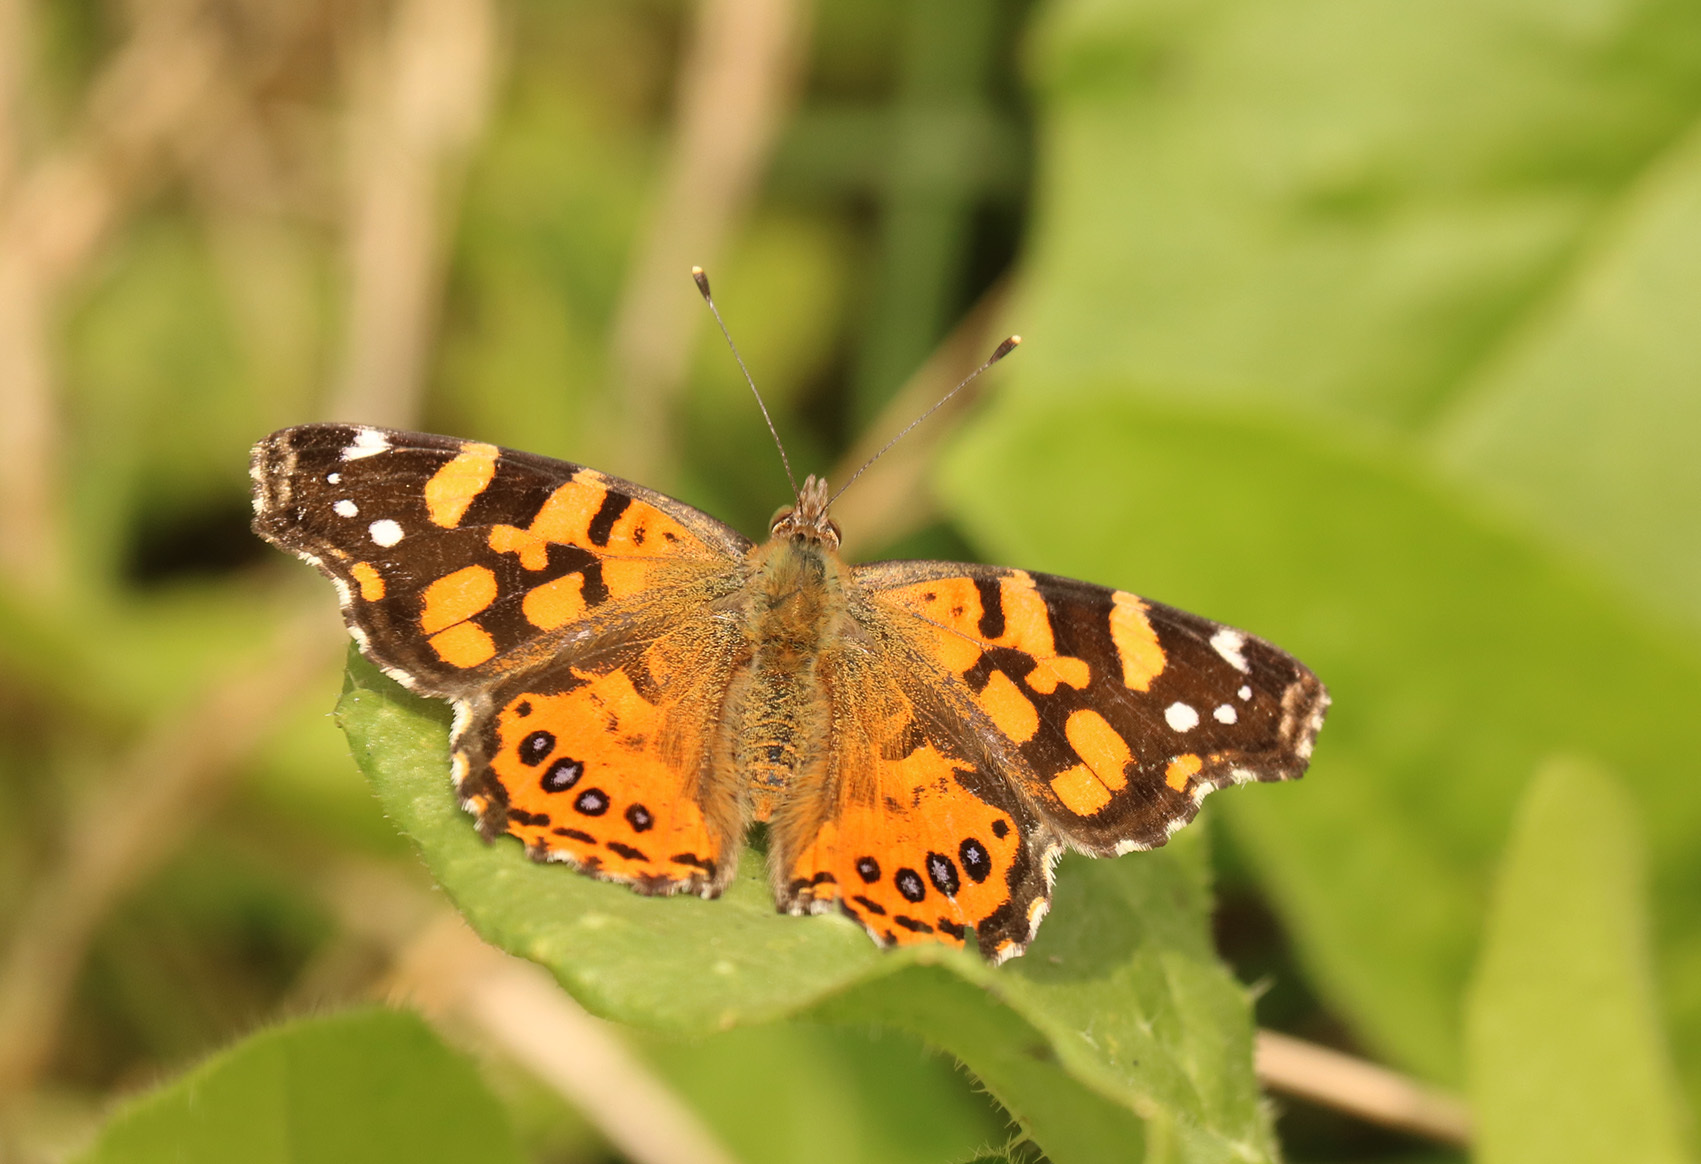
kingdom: Animalia
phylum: Arthropoda
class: Insecta
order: Lepidoptera
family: Nymphalidae
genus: Vanessa
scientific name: Vanessa carye
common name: Subtropical lady
